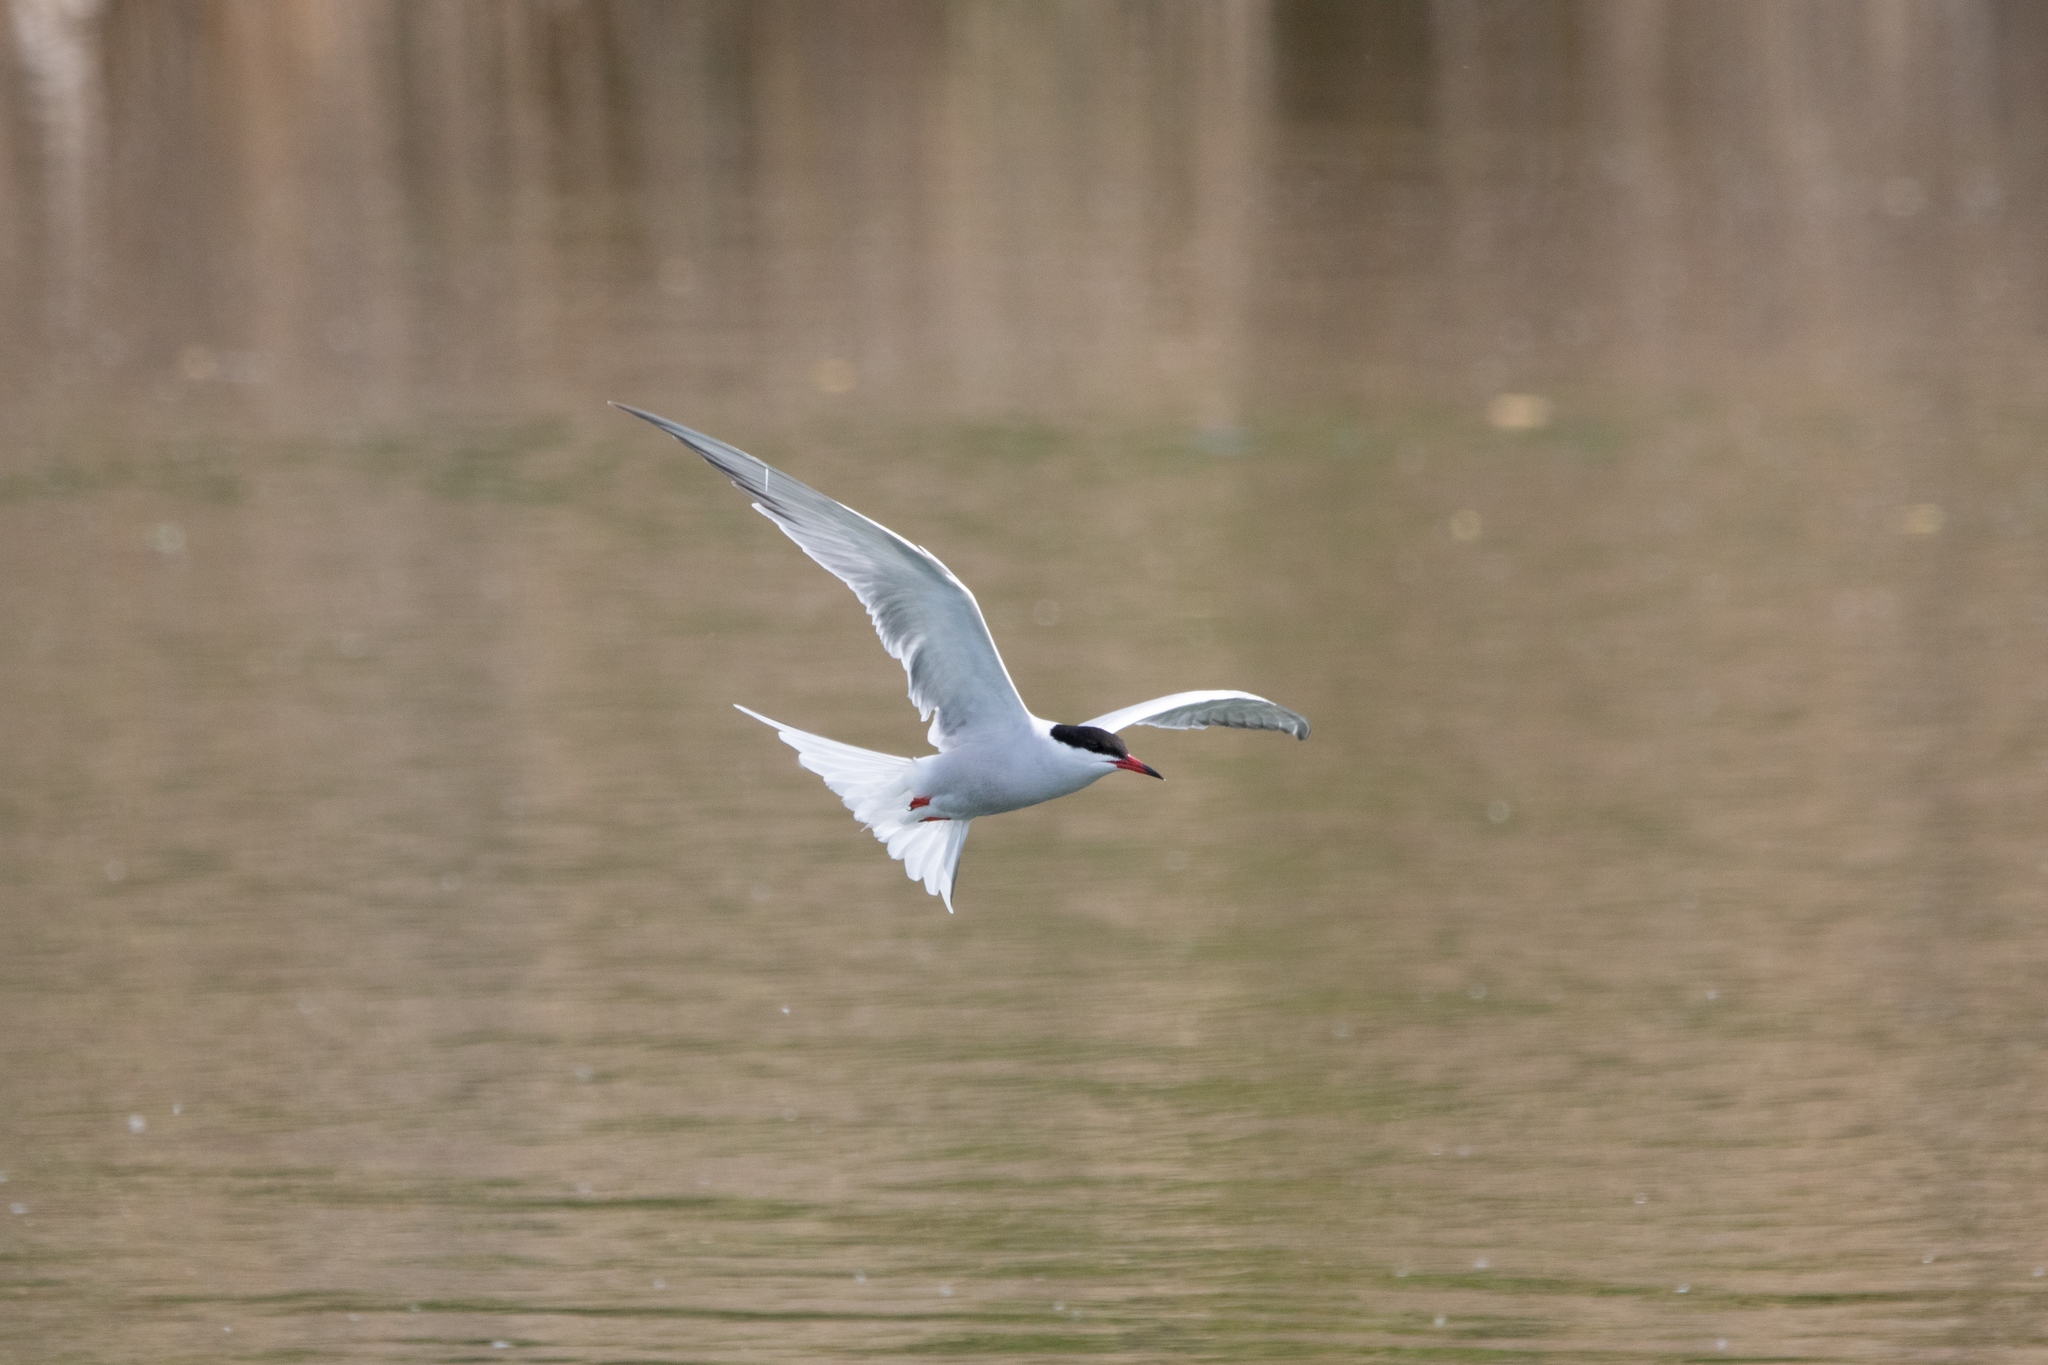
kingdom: Animalia
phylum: Chordata
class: Aves
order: Charadriiformes
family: Laridae
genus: Sterna
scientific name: Sterna hirundo
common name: Common tern
